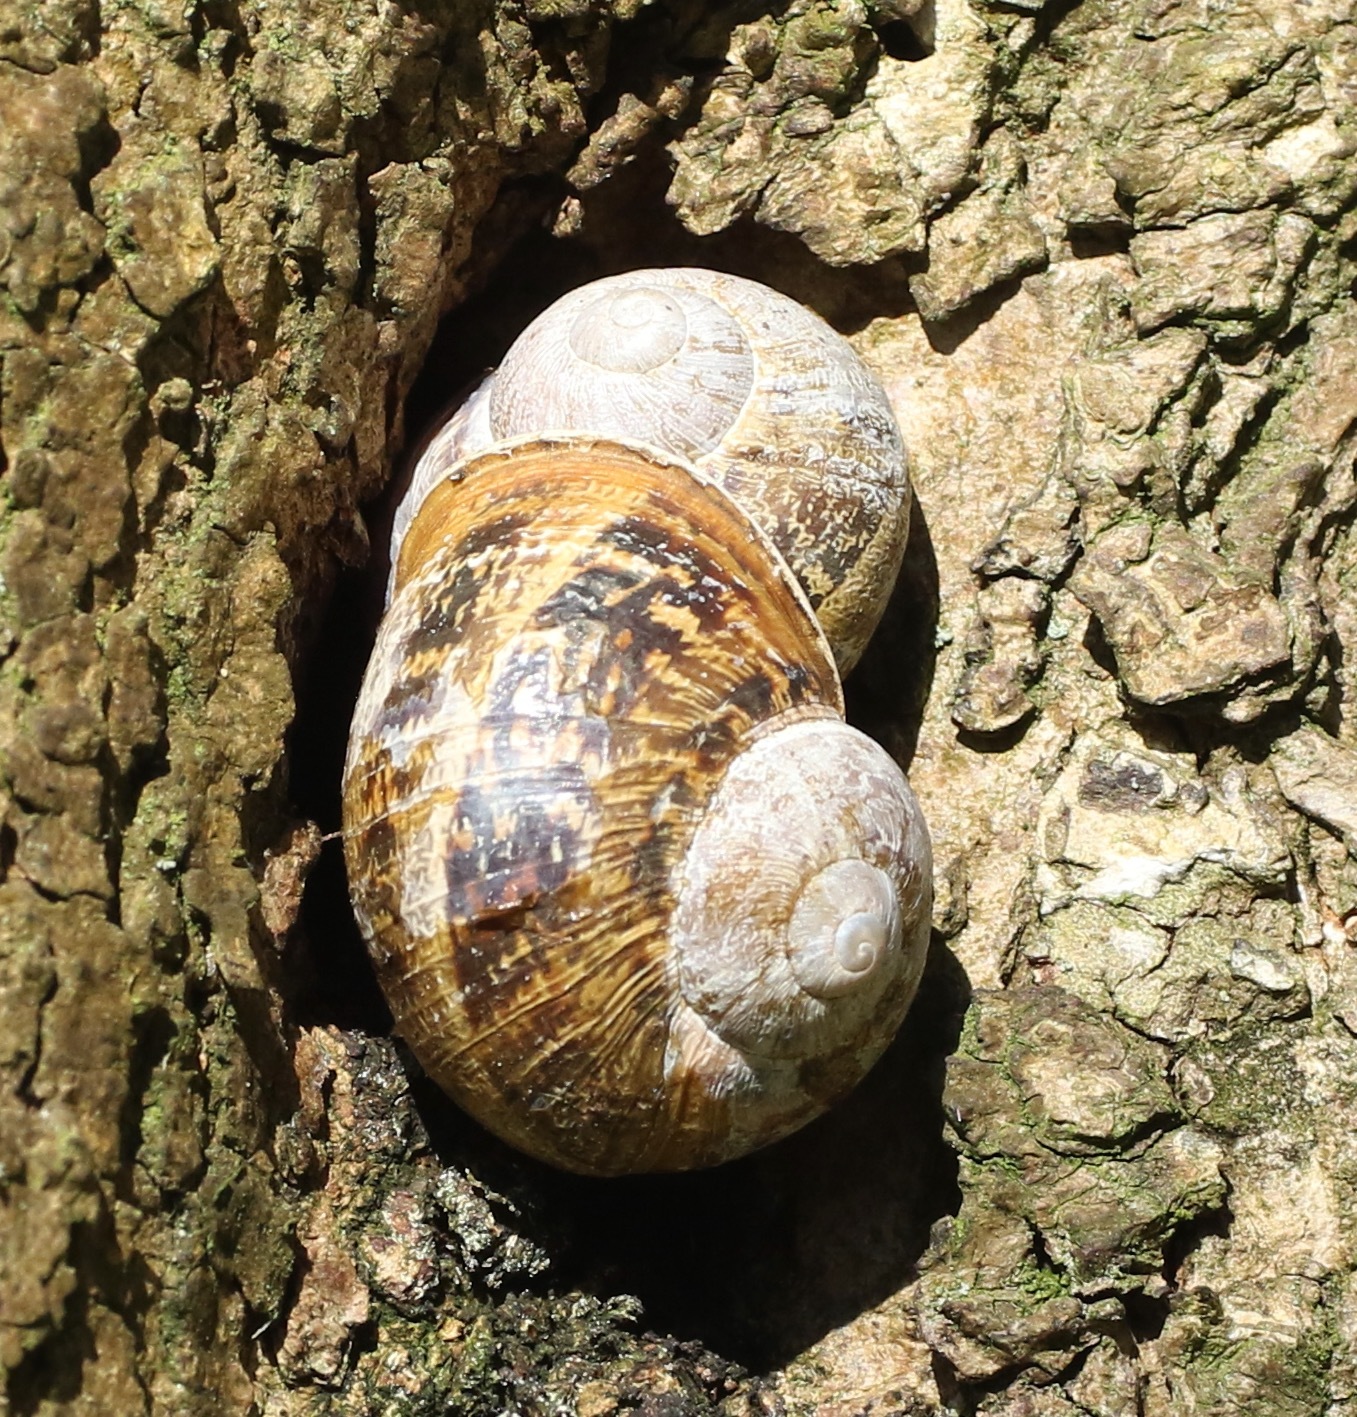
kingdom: Animalia
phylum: Mollusca
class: Gastropoda
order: Stylommatophora
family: Helicidae
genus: Cornu
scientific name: Cornu aspersum
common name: Brown garden snail
